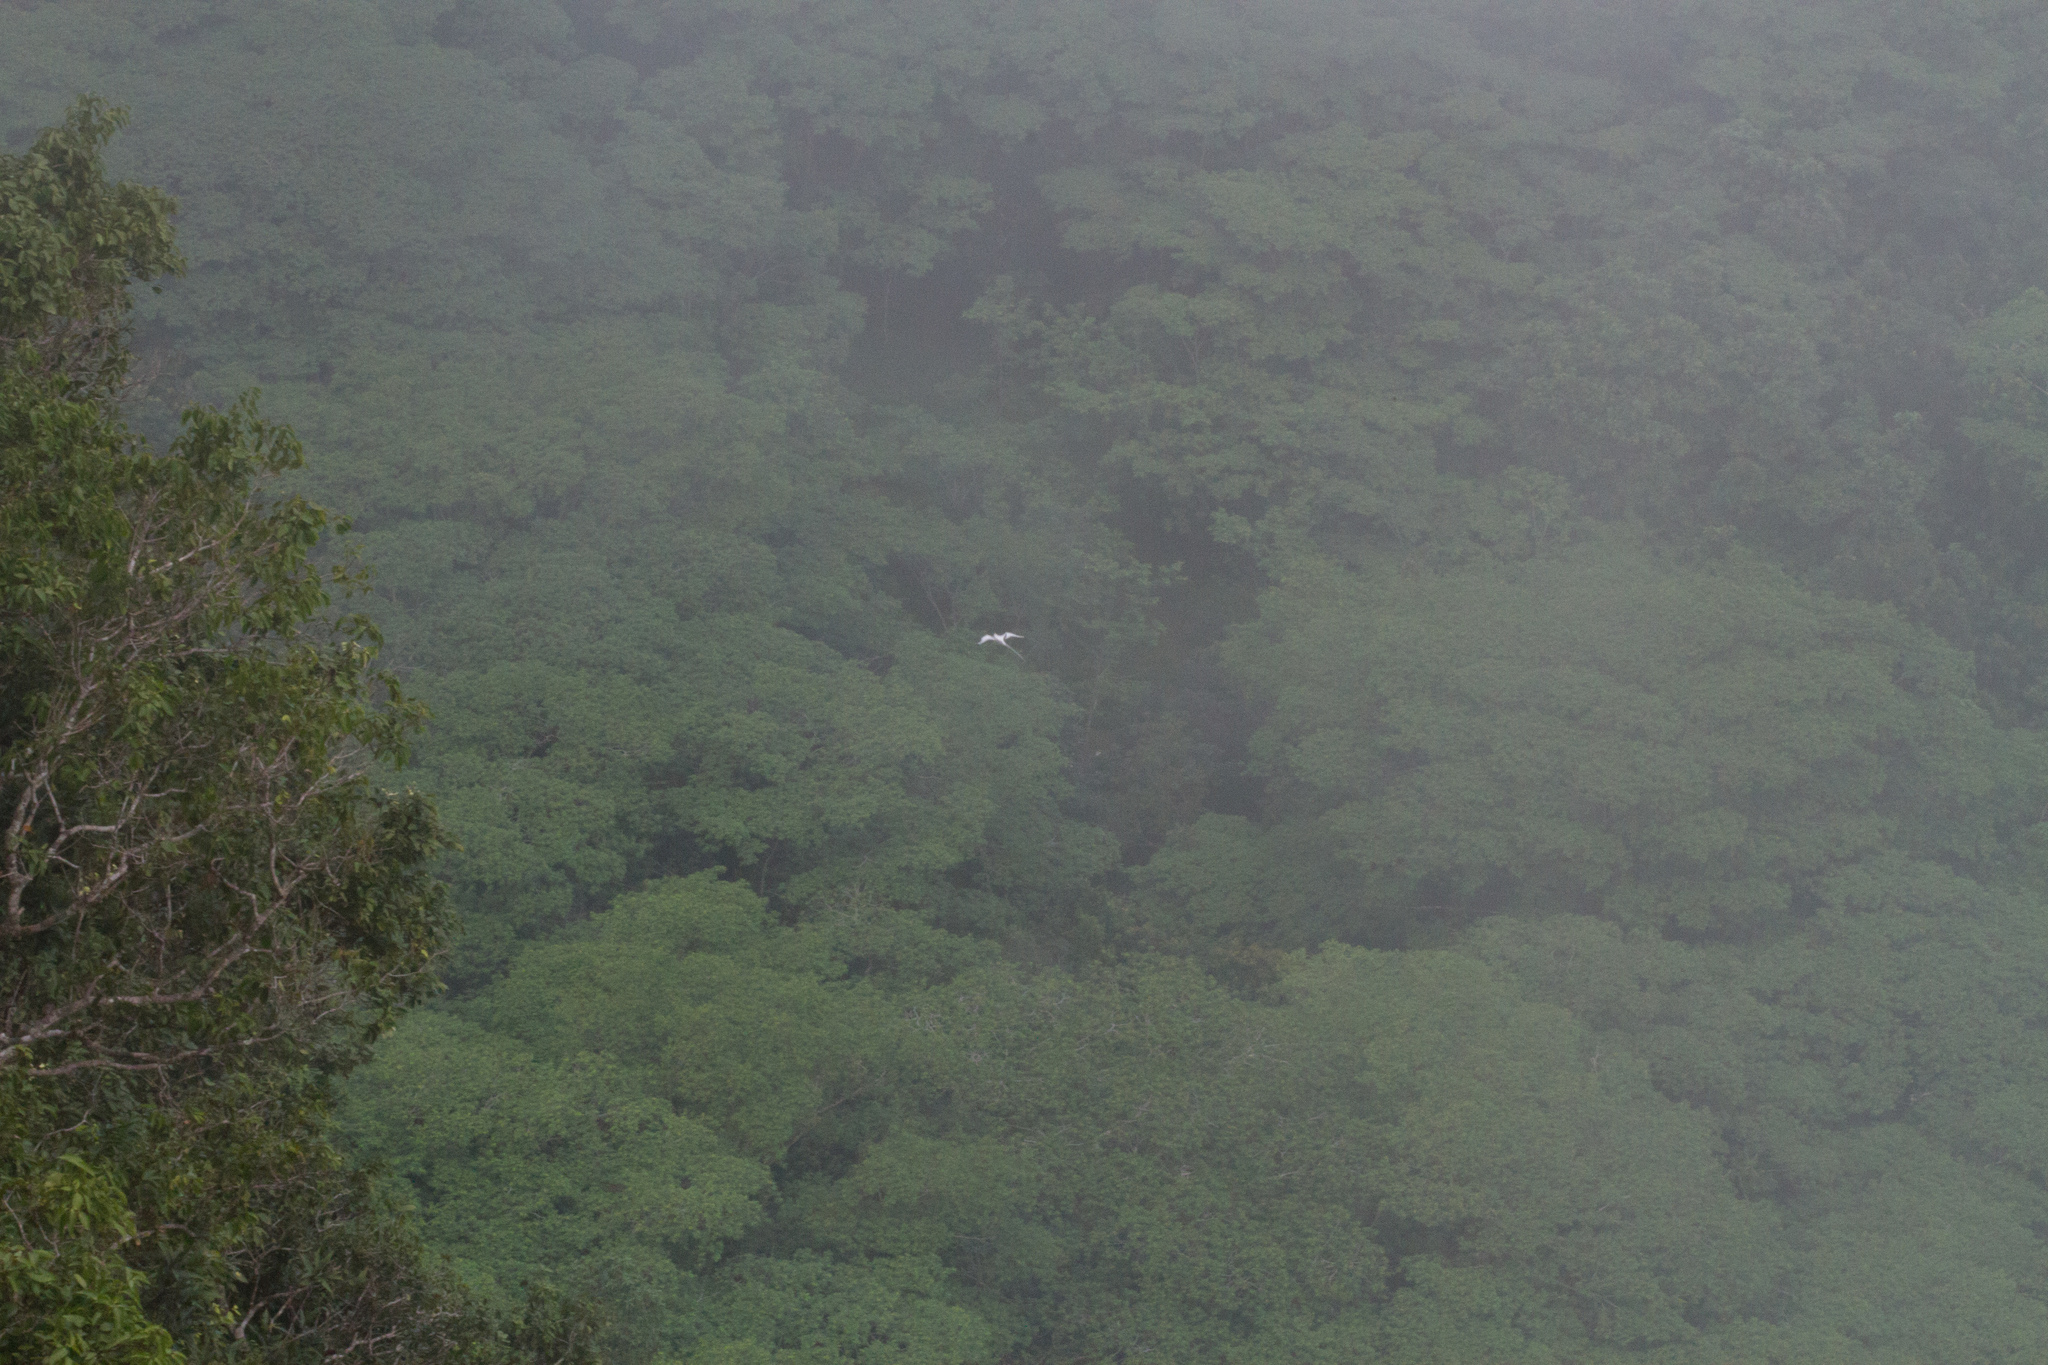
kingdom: Animalia
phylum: Chordata
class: Aves
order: Phaethontiformes
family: Phaethontidae
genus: Phaethon
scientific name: Phaethon lepturus
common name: White-tailed tropicbird
